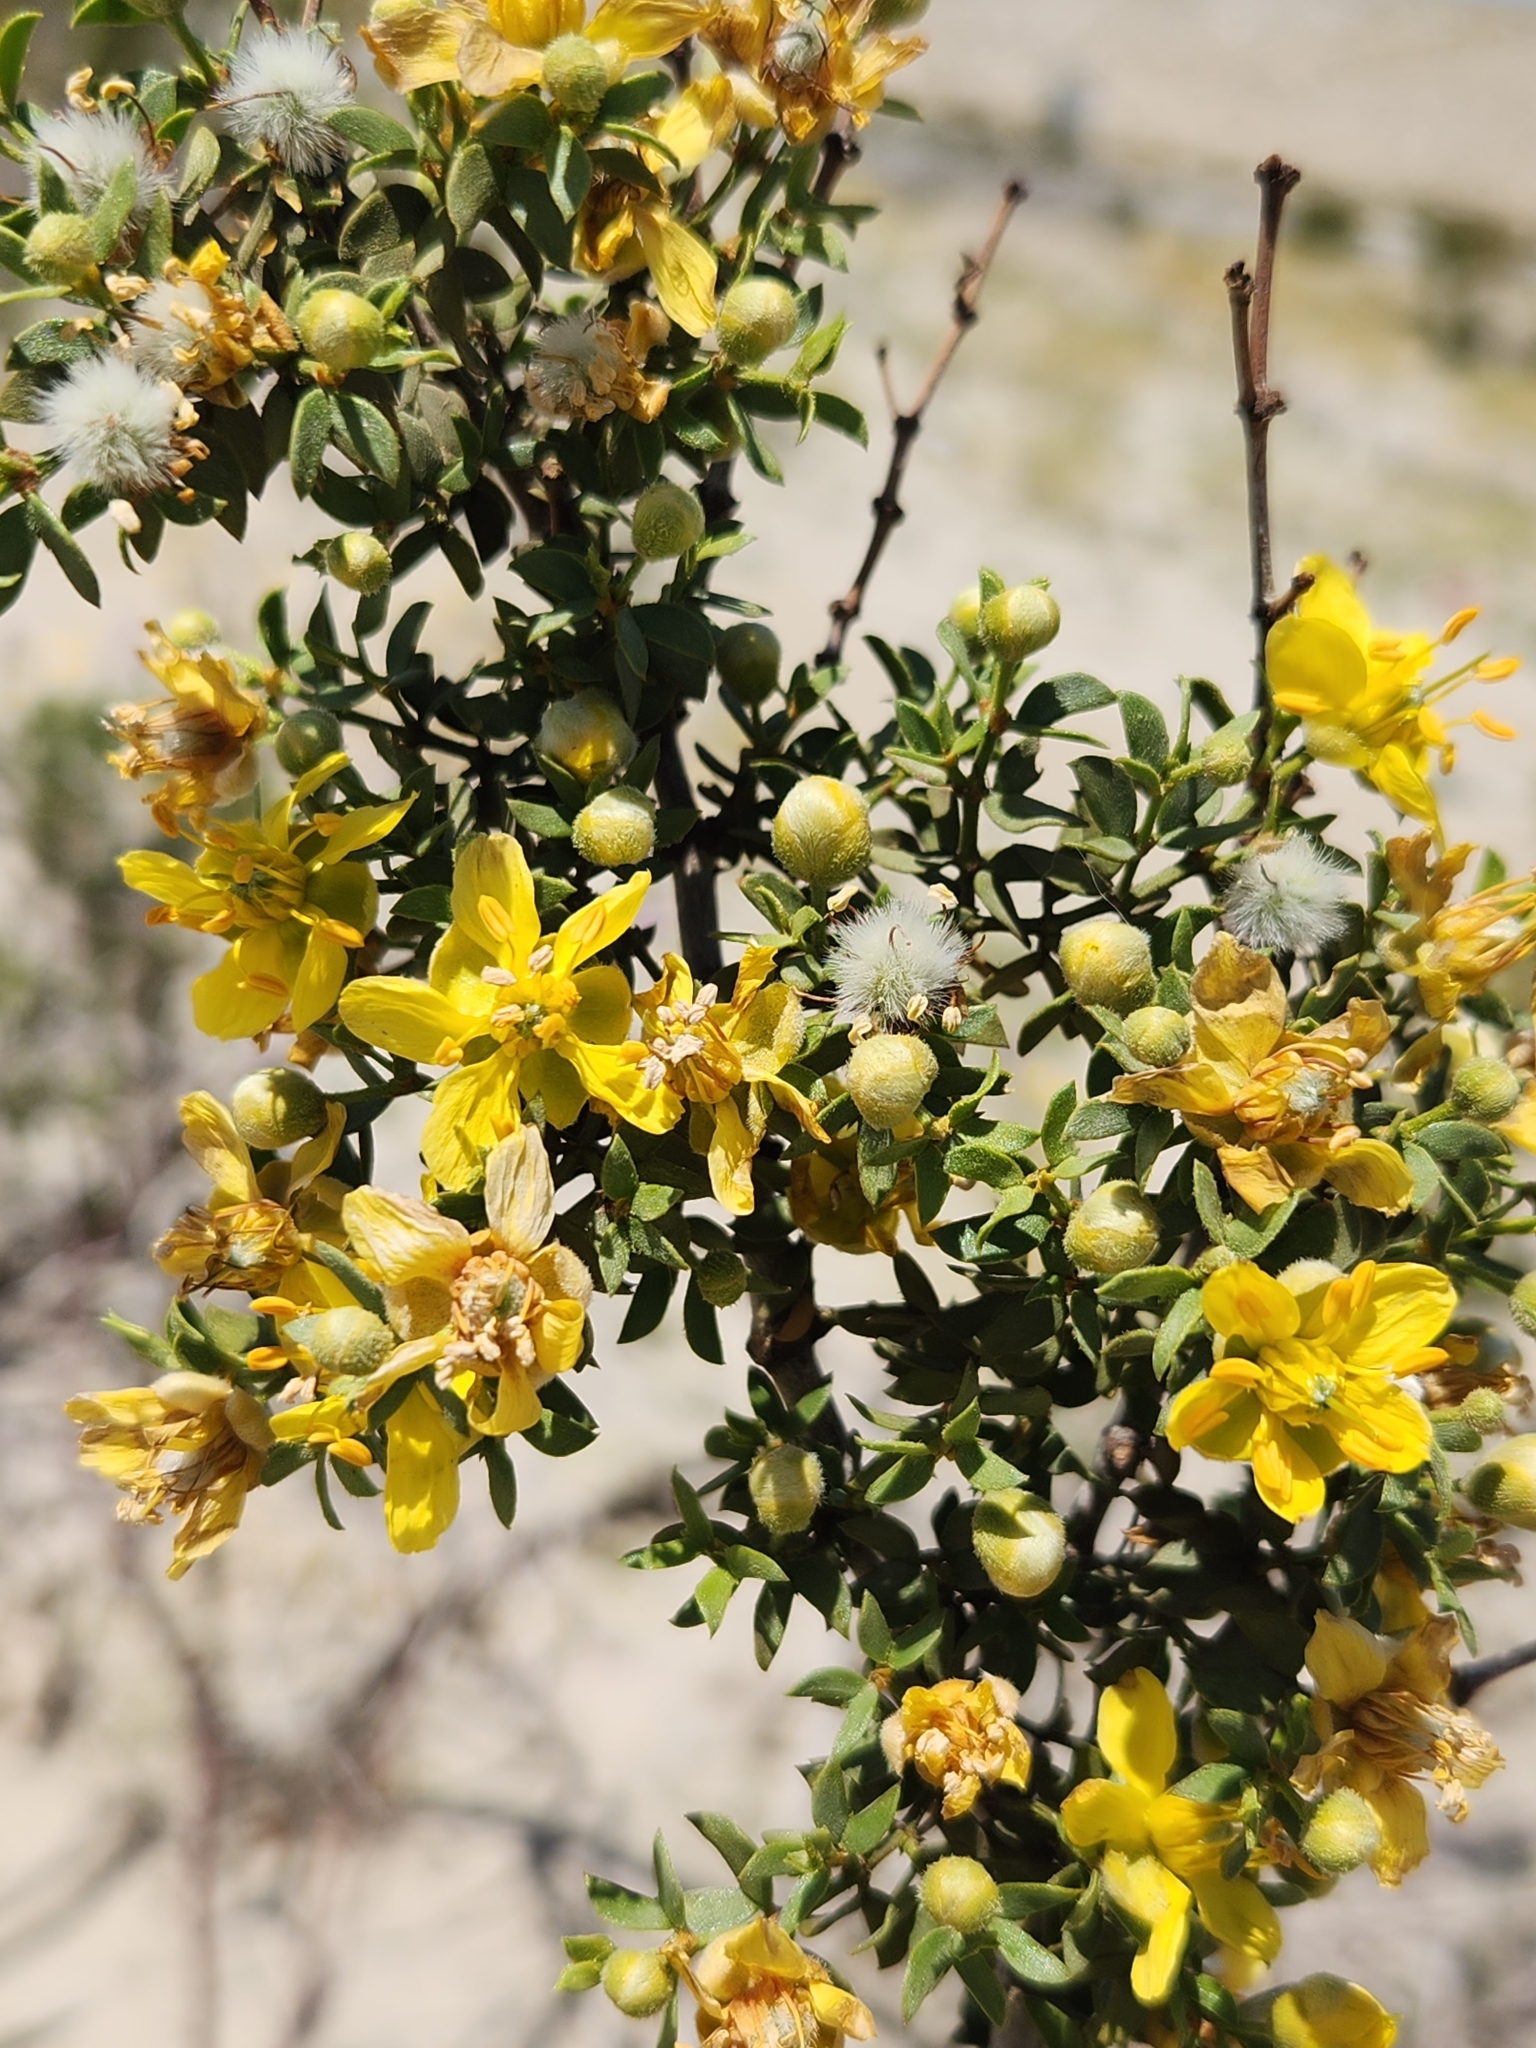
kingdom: Plantae
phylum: Tracheophyta
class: Magnoliopsida
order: Zygophyllales
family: Zygophyllaceae
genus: Larrea
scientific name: Larrea tridentata
